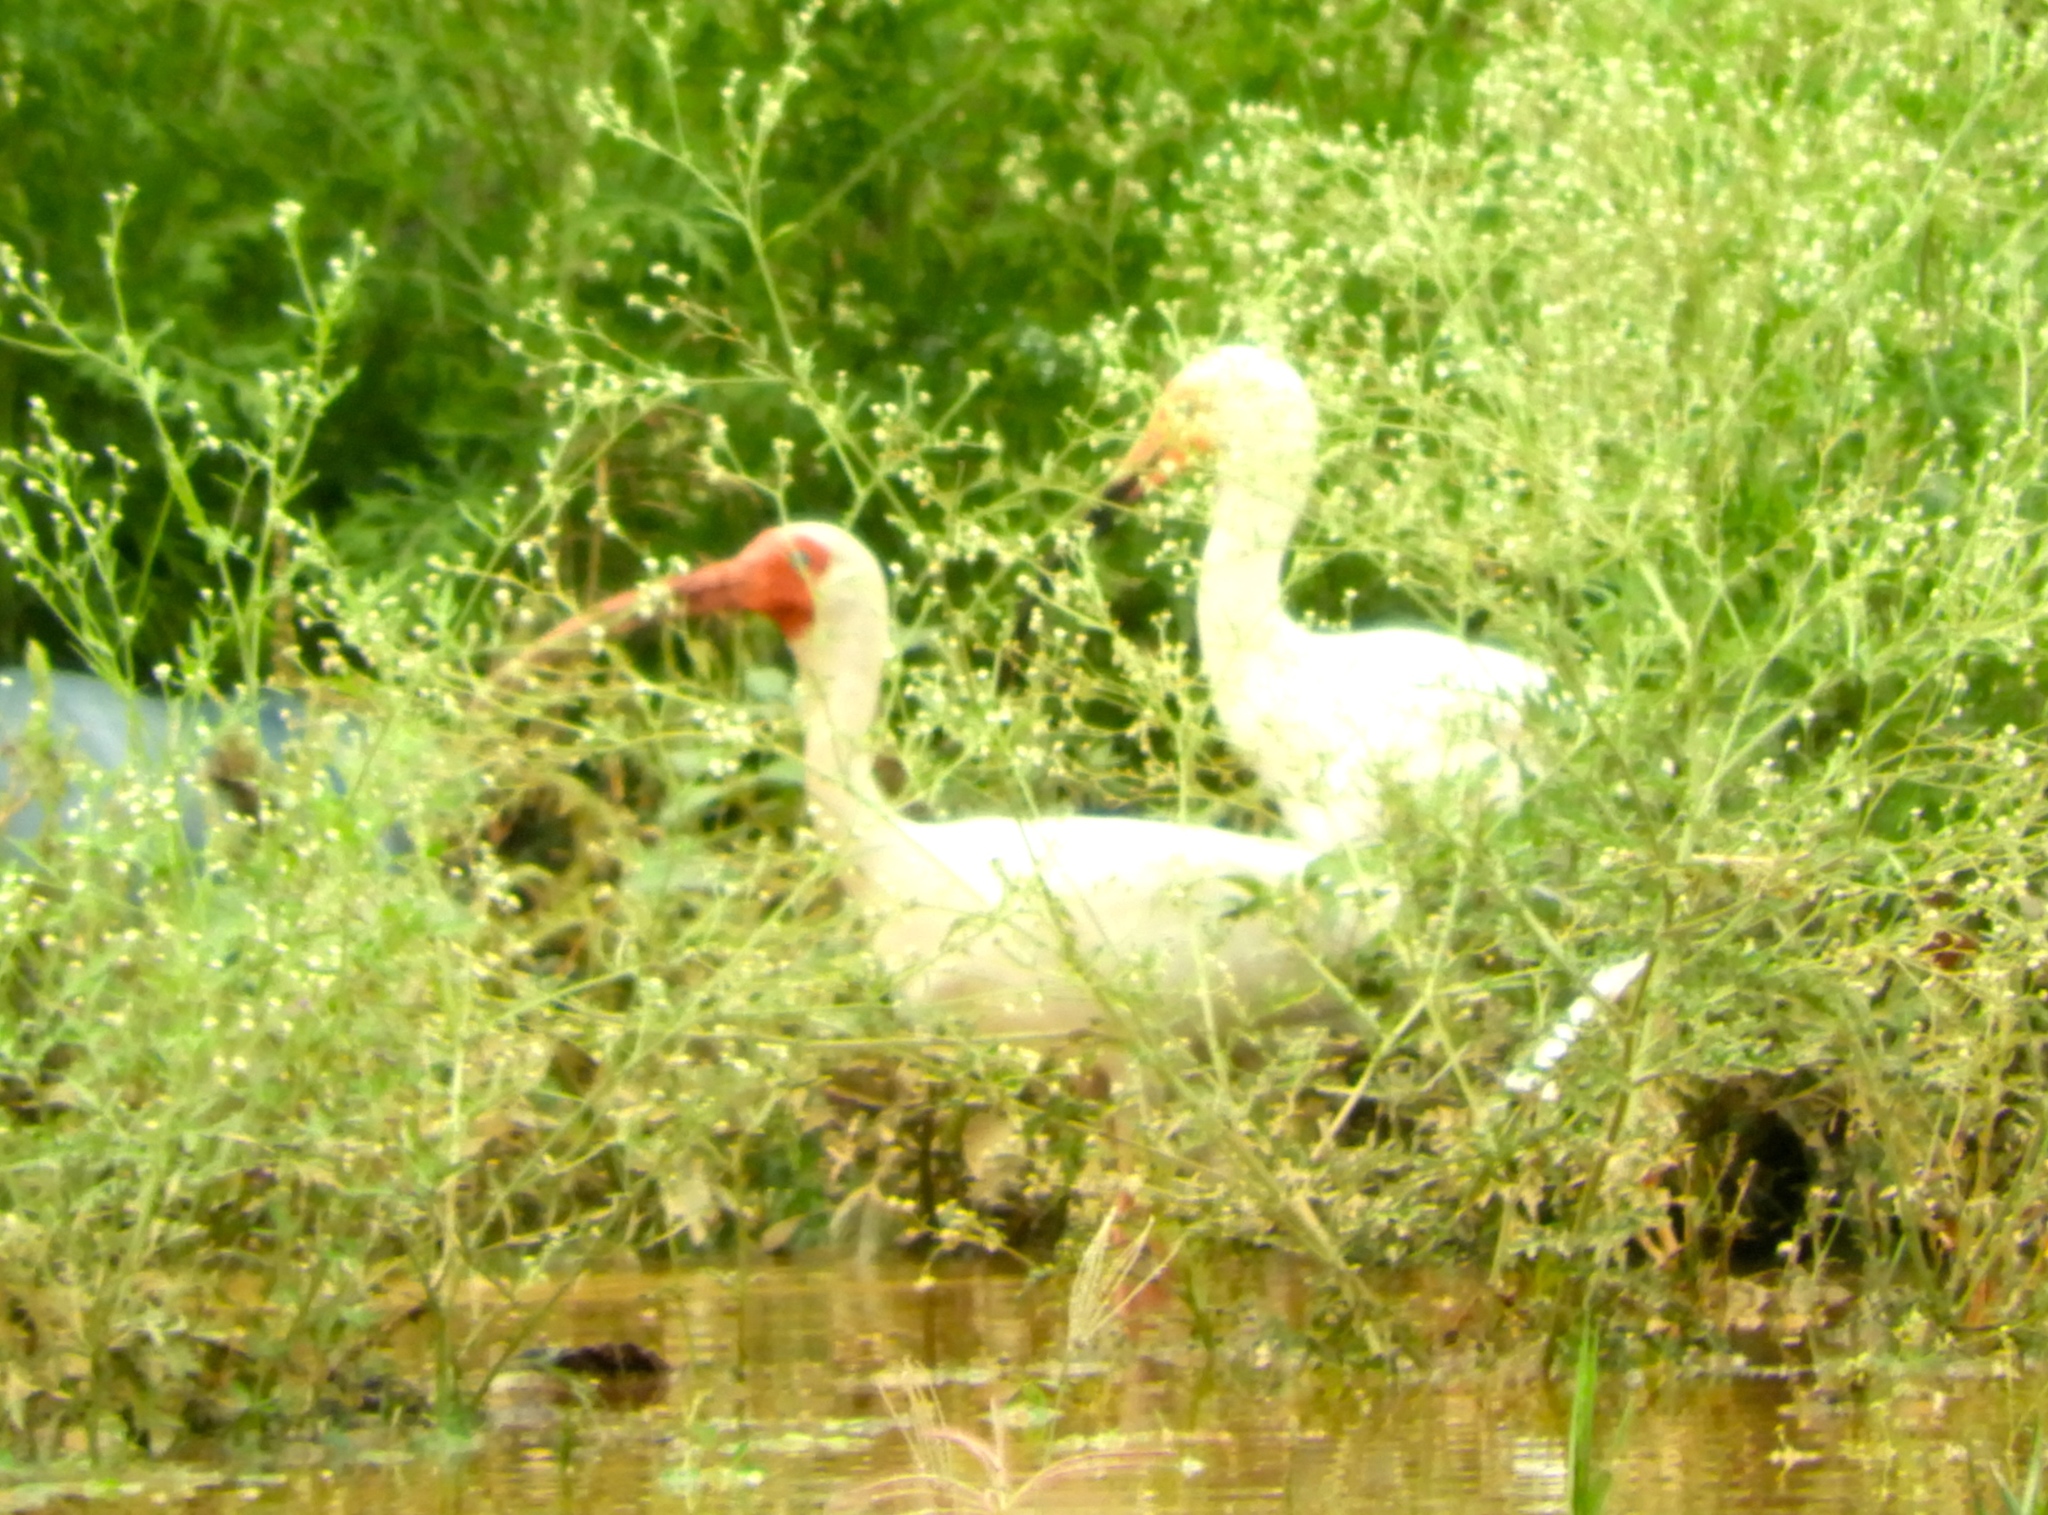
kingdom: Animalia
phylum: Chordata
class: Aves
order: Pelecaniformes
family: Threskiornithidae
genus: Eudocimus
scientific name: Eudocimus albus
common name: White ibis
